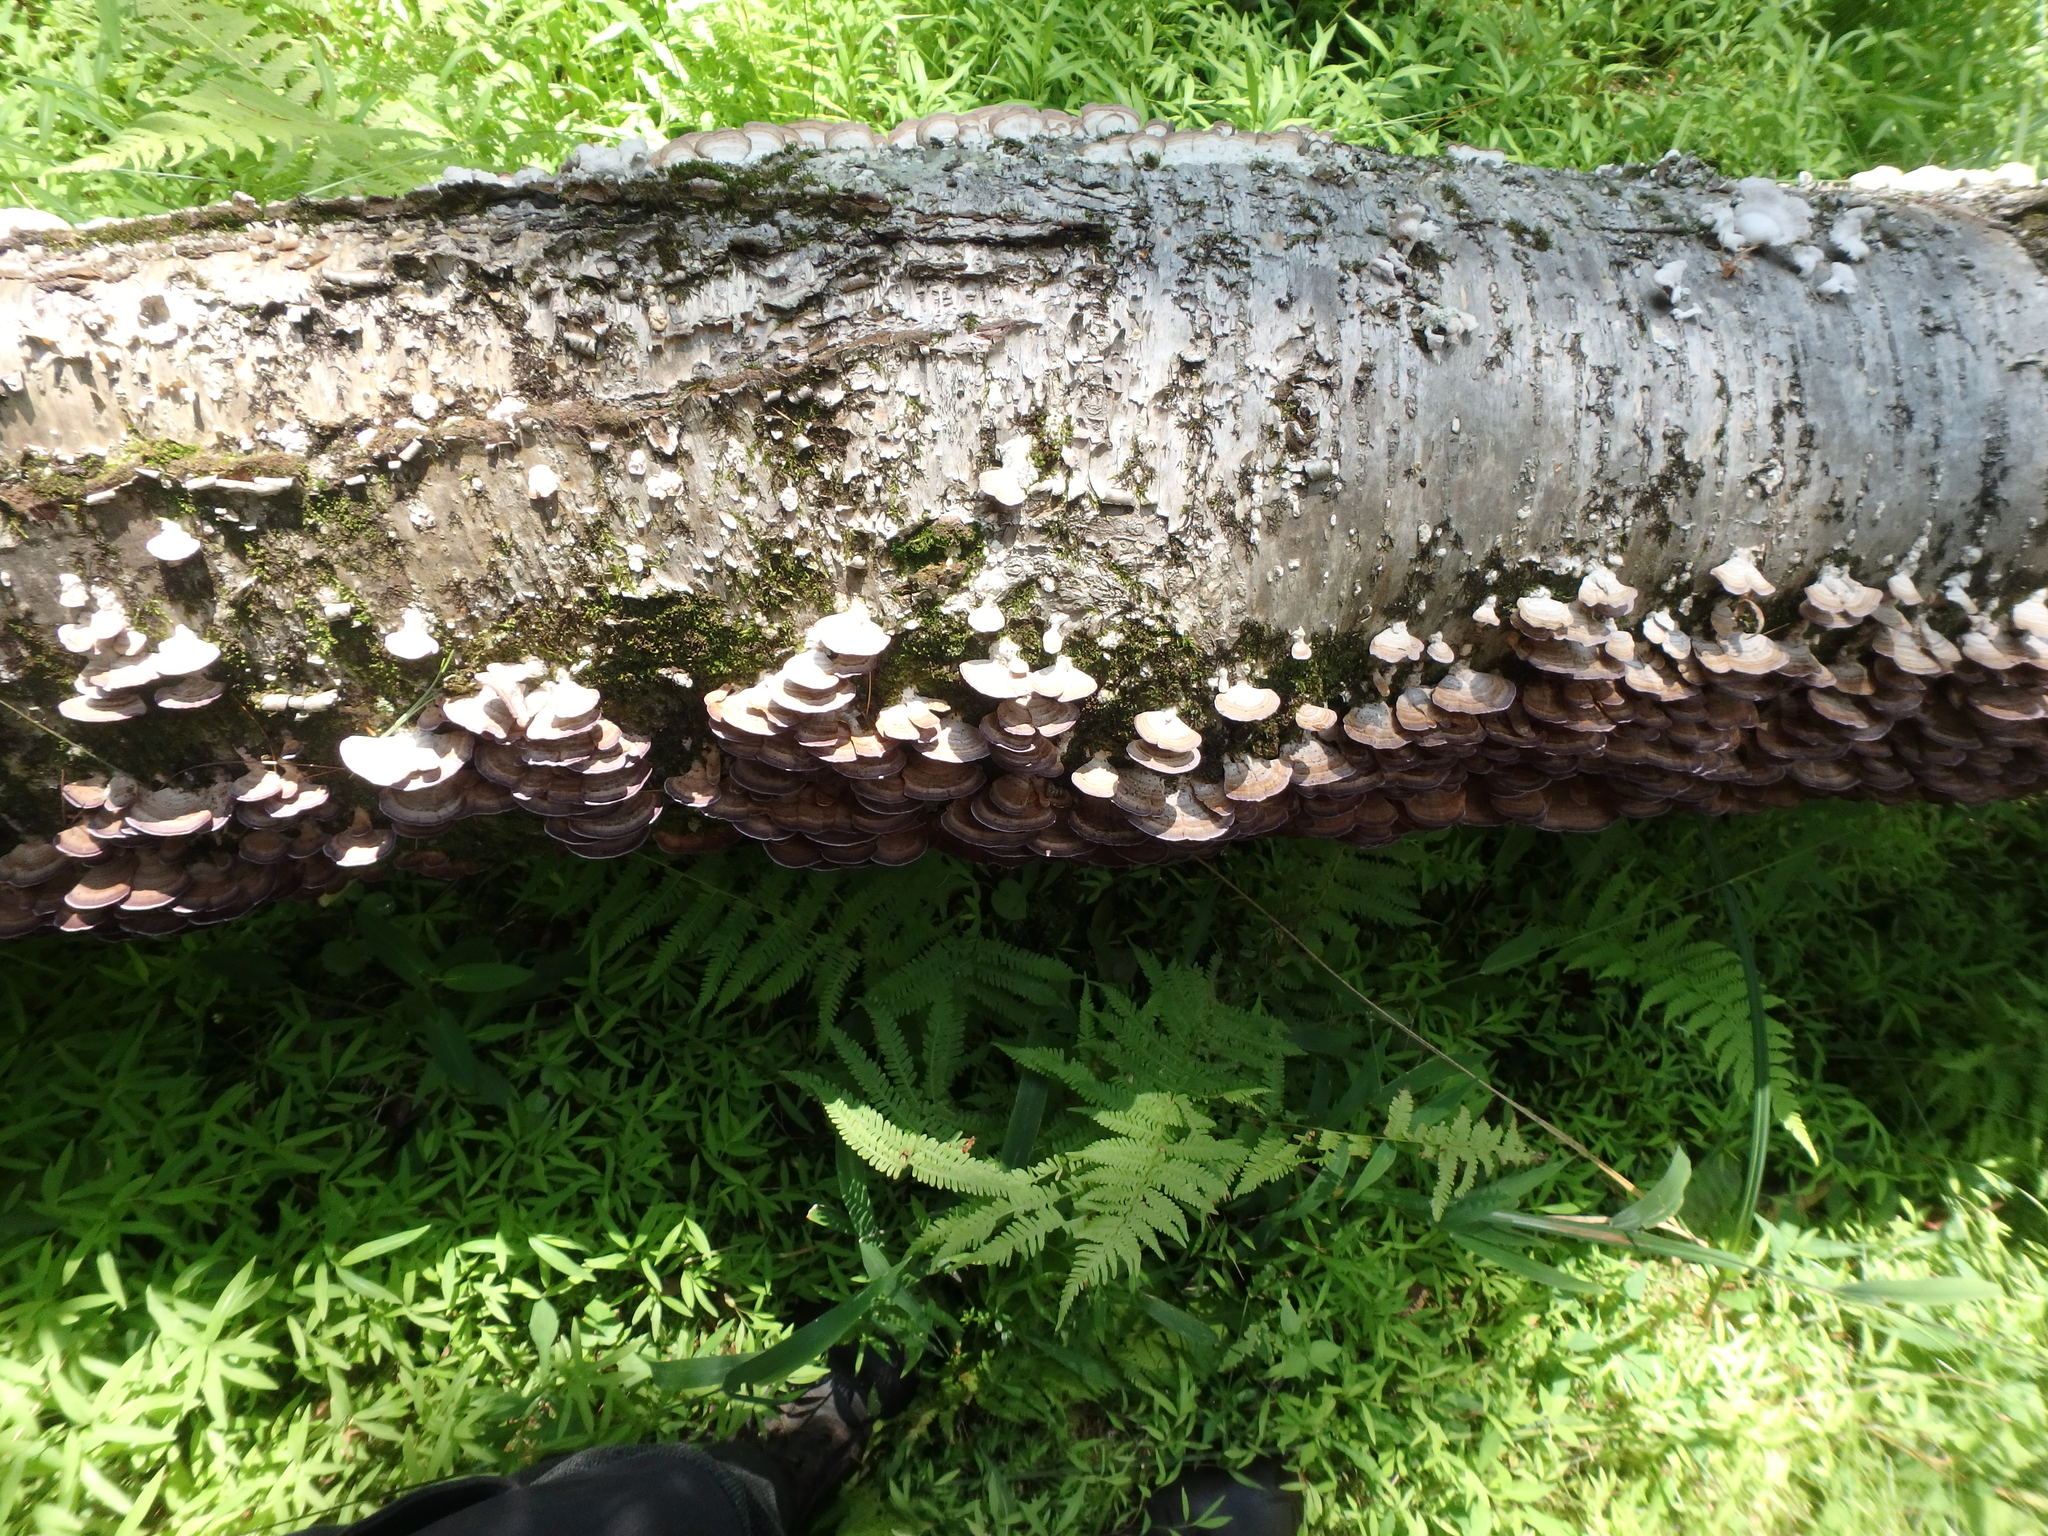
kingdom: Plantae
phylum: Tracheophyta
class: Magnoliopsida
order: Fagales
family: Betulaceae
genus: Betula
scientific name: Betula alleghaniensis
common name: Yellow birch
